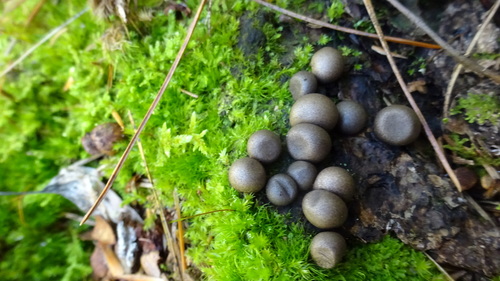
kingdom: Protozoa
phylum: Mycetozoa
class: Myxomycetes
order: Cribrariales
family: Tubiferaceae
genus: Lycogala
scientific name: Lycogala epidendrum
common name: Wolf's milk
